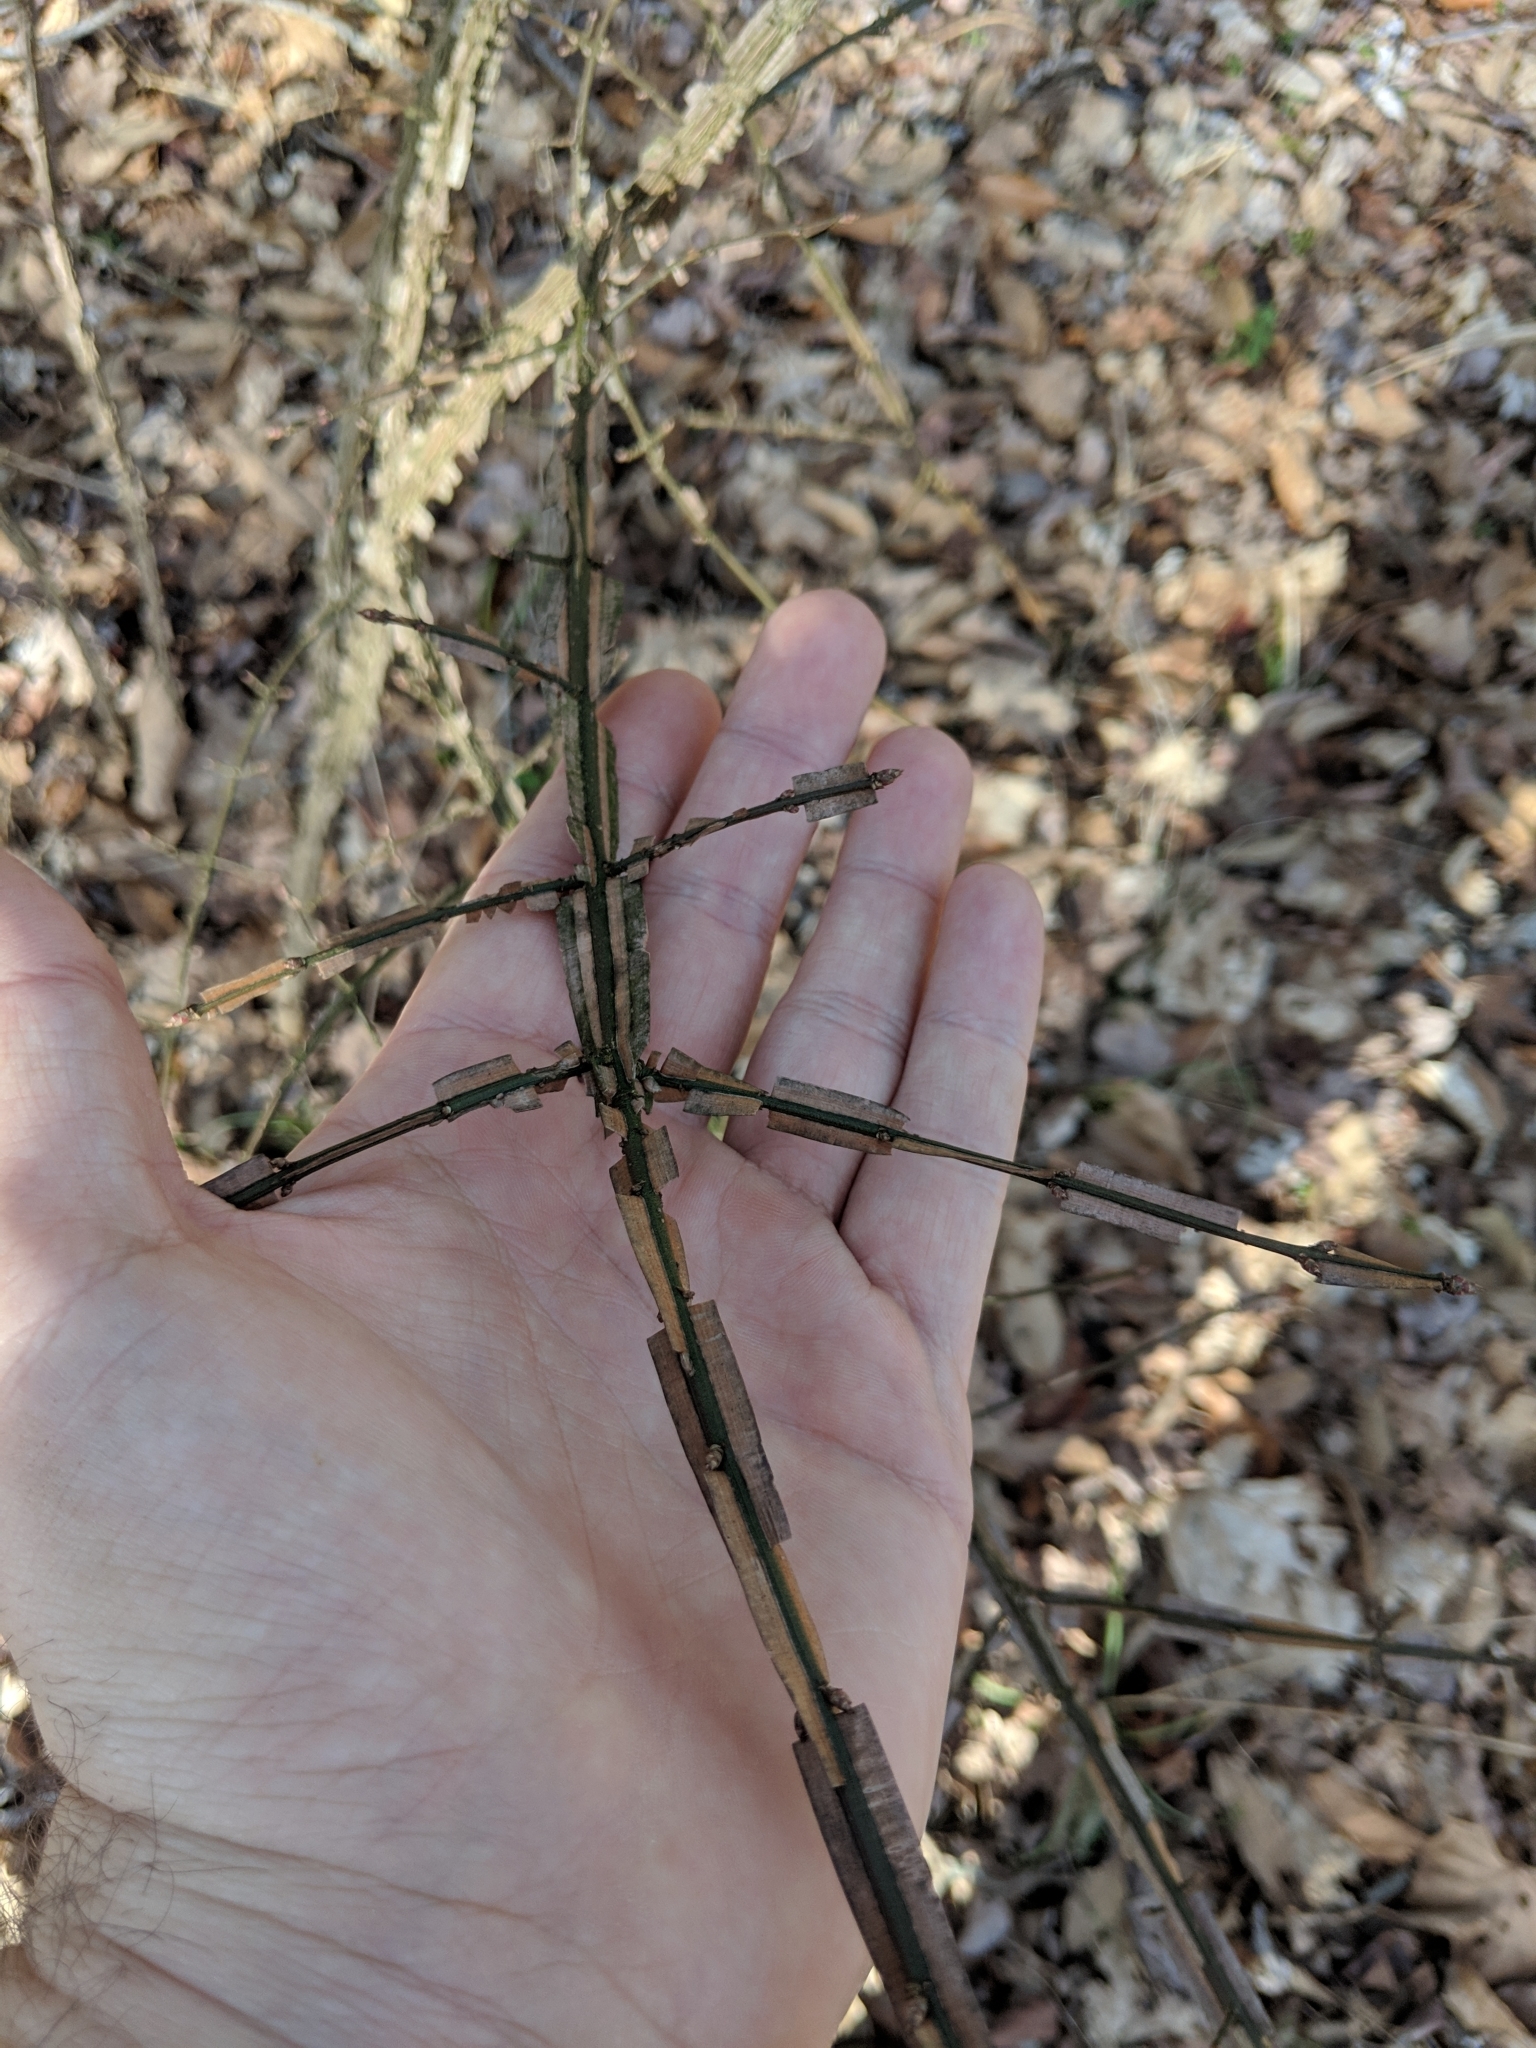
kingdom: Plantae
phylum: Tracheophyta
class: Magnoliopsida
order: Celastrales
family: Celastraceae
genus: Euonymus
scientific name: Euonymus alatus
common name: Winged euonymus
